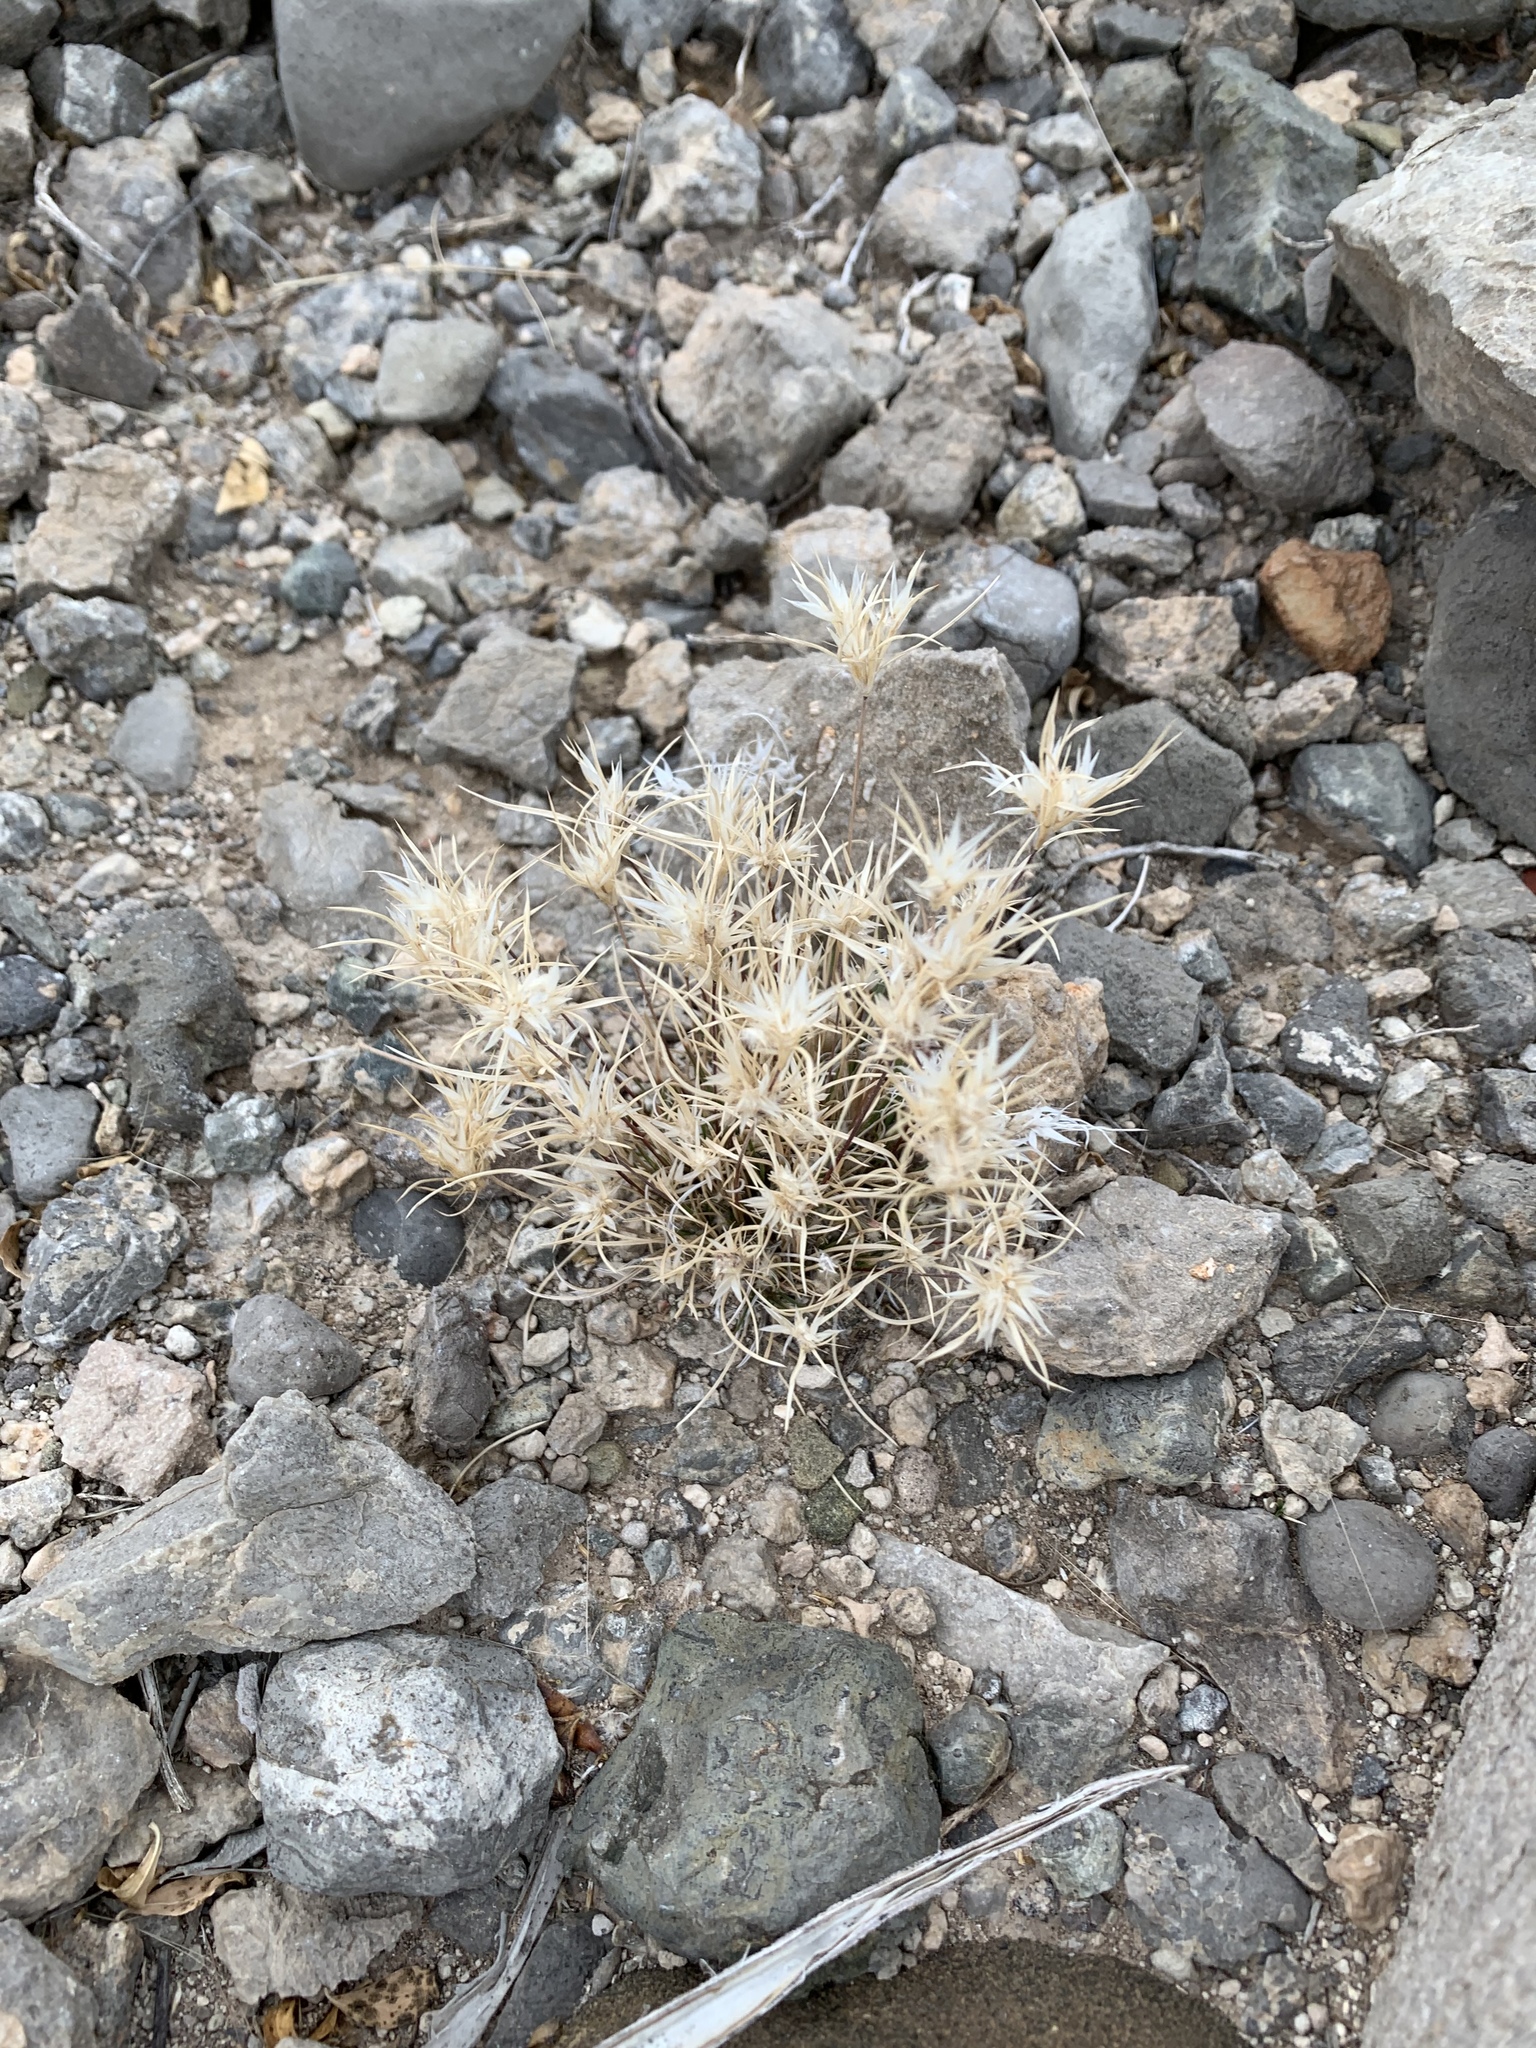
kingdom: Plantae
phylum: Tracheophyta
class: Liliopsida
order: Poales
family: Poaceae
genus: Dasyochloa
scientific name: Dasyochloa pulchella
